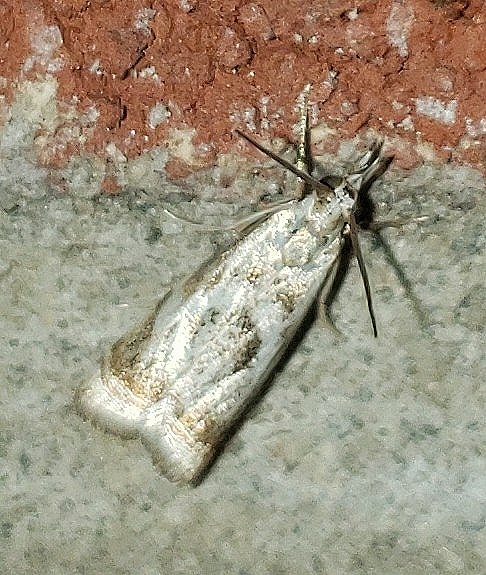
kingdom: Animalia
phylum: Arthropoda
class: Insecta
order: Lepidoptera
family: Crambidae
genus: Microcrambus
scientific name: Microcrambus elegans
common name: Elegant grass-veneer
